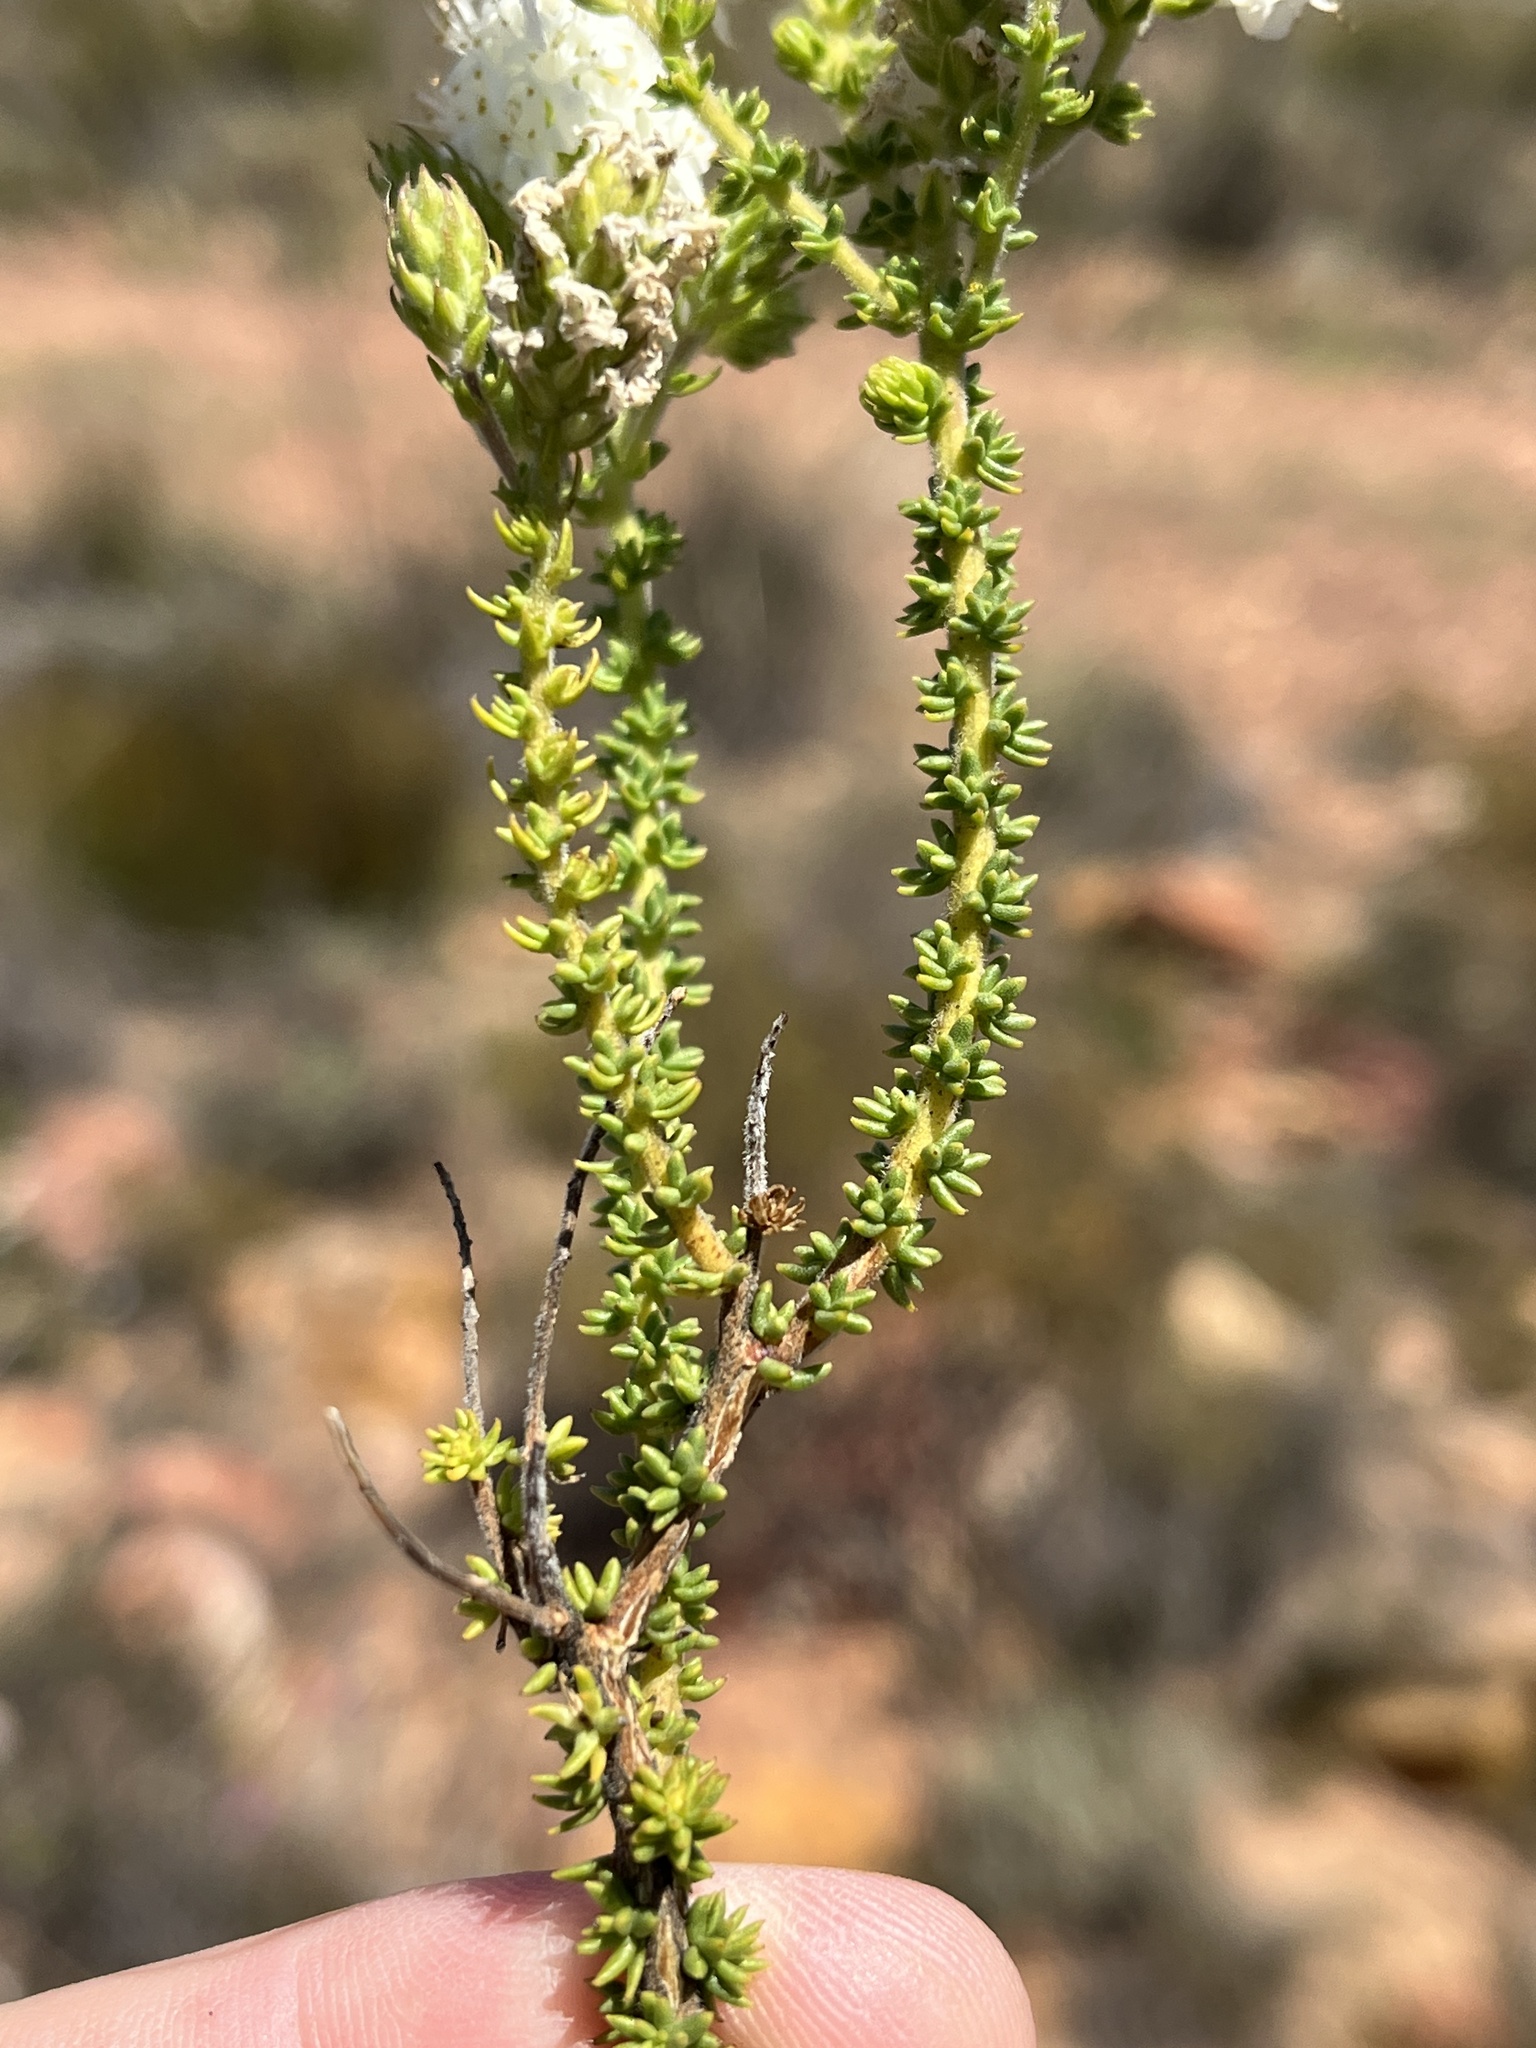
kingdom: Plantae
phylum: Tracheophyta
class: Magnoliopsida
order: Lamiales
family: Scrophulariaceae
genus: Selago
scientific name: Selago myriophylla
